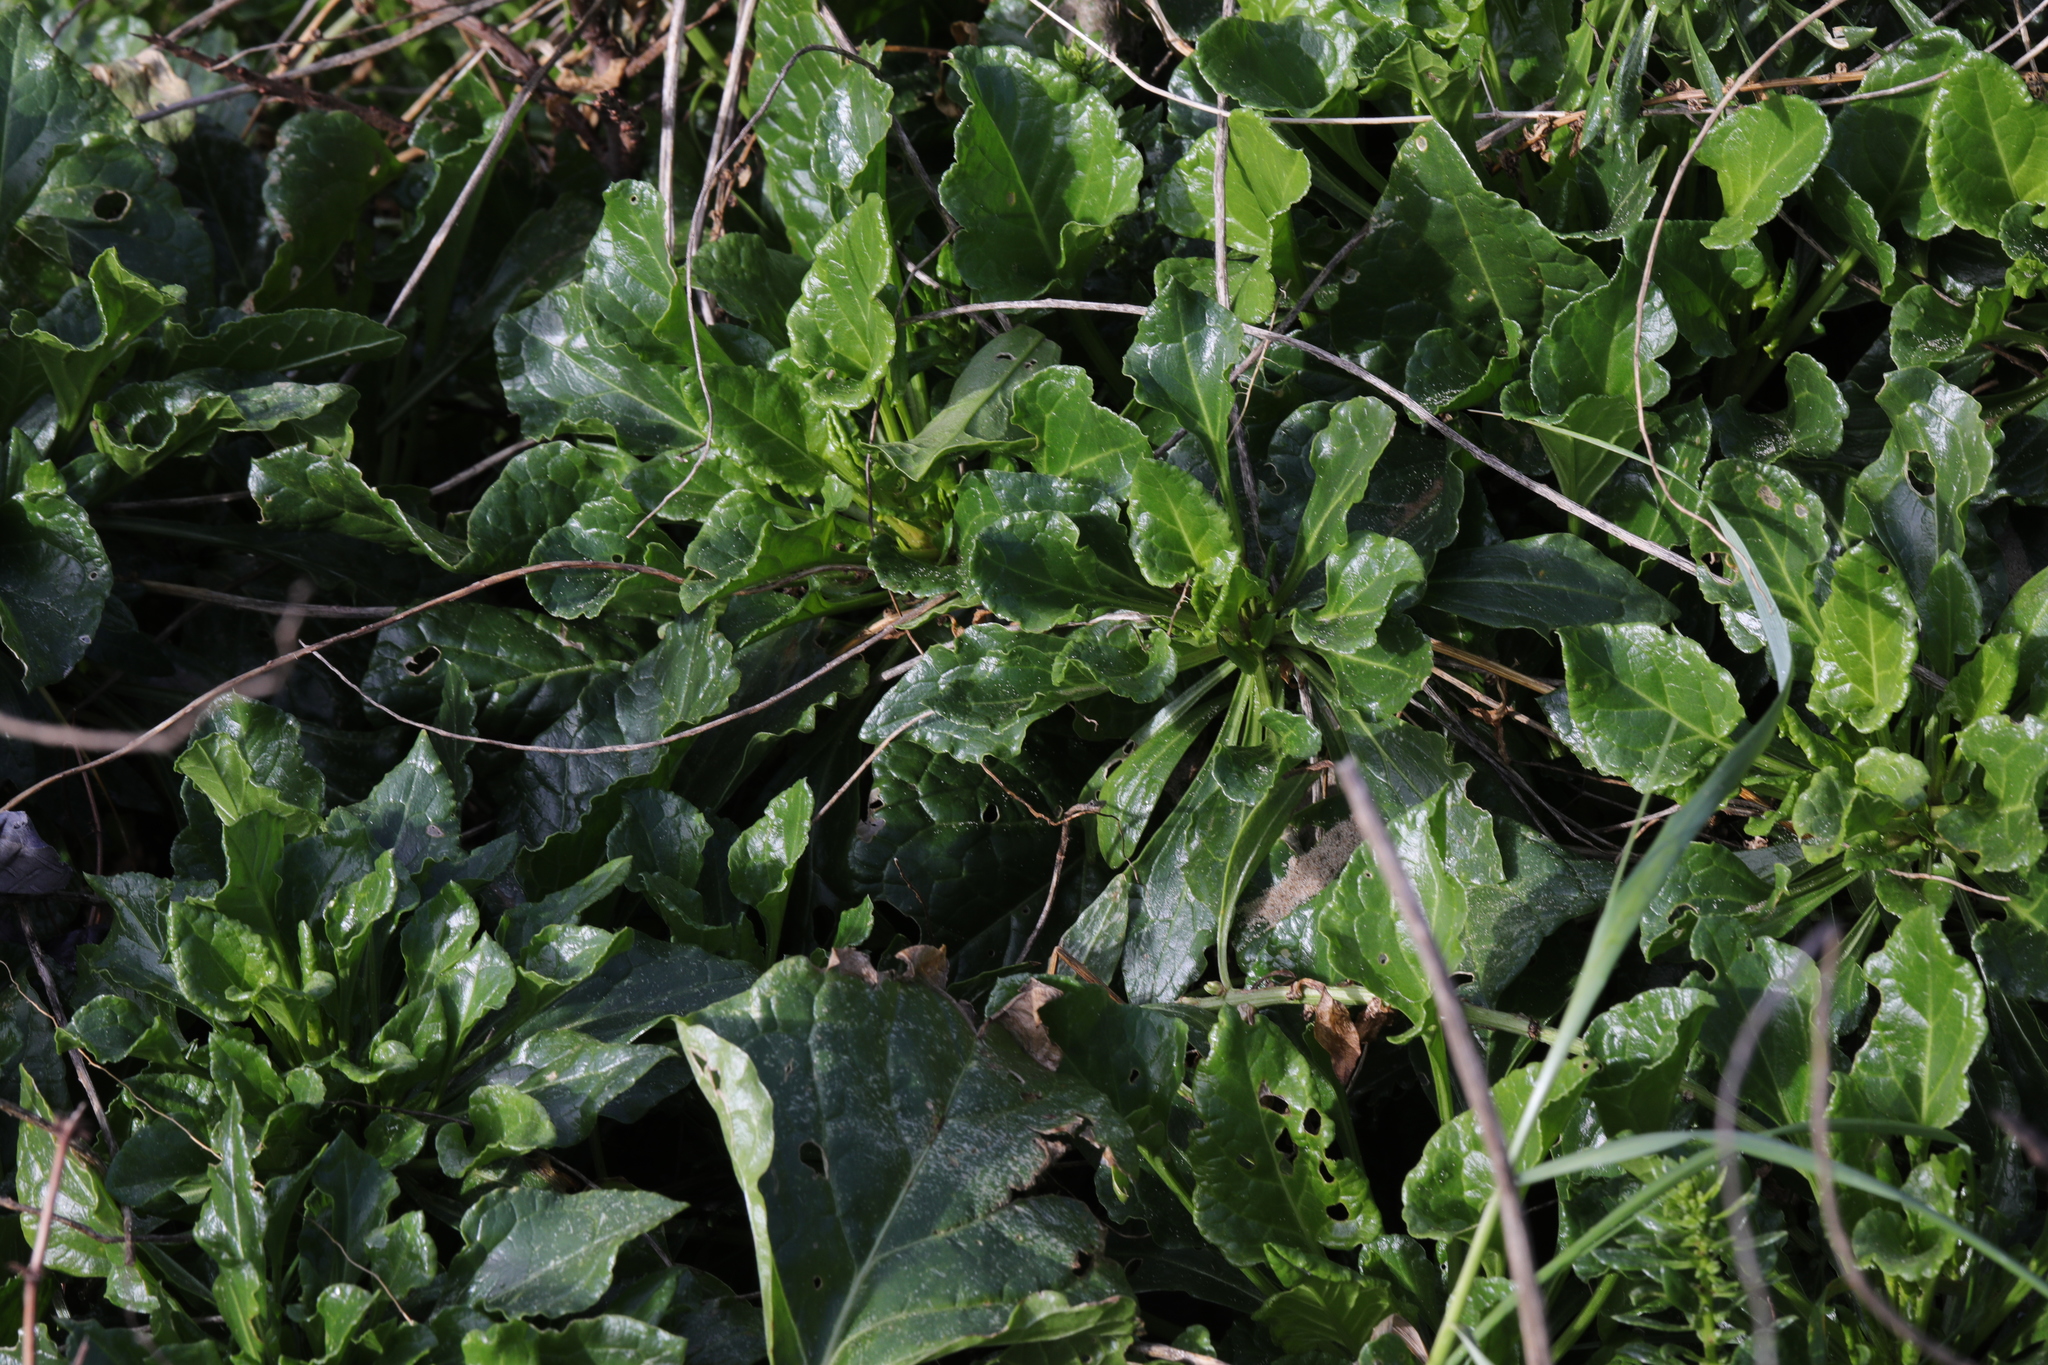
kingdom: Plantae
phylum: Tracheophyta
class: Magnoliopsida
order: Caryophyllales
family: Amaranthaceae
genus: Beta
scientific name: Beta vulgaris
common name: Beet
